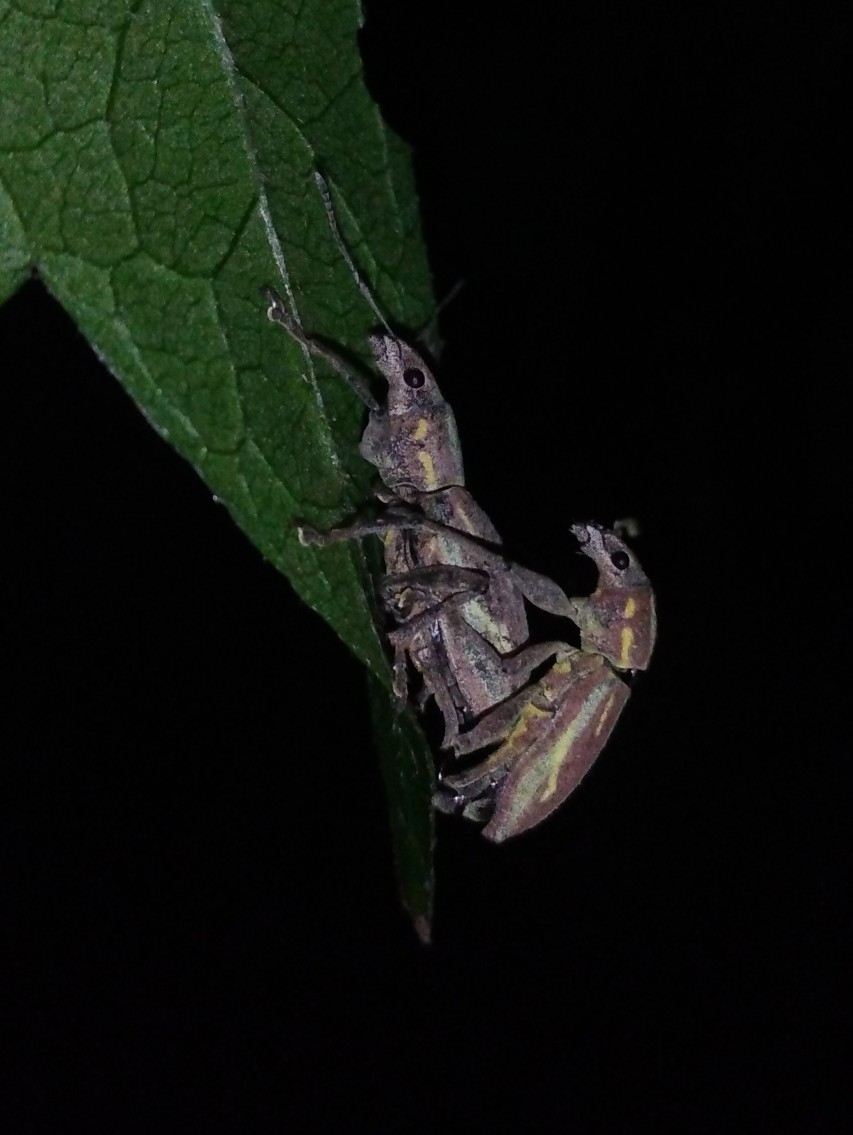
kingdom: Animalia
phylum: Arthropoda
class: Insecta
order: Coleoptera
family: Curculionidae
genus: Naupactus
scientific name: Naupactus xanthographus
